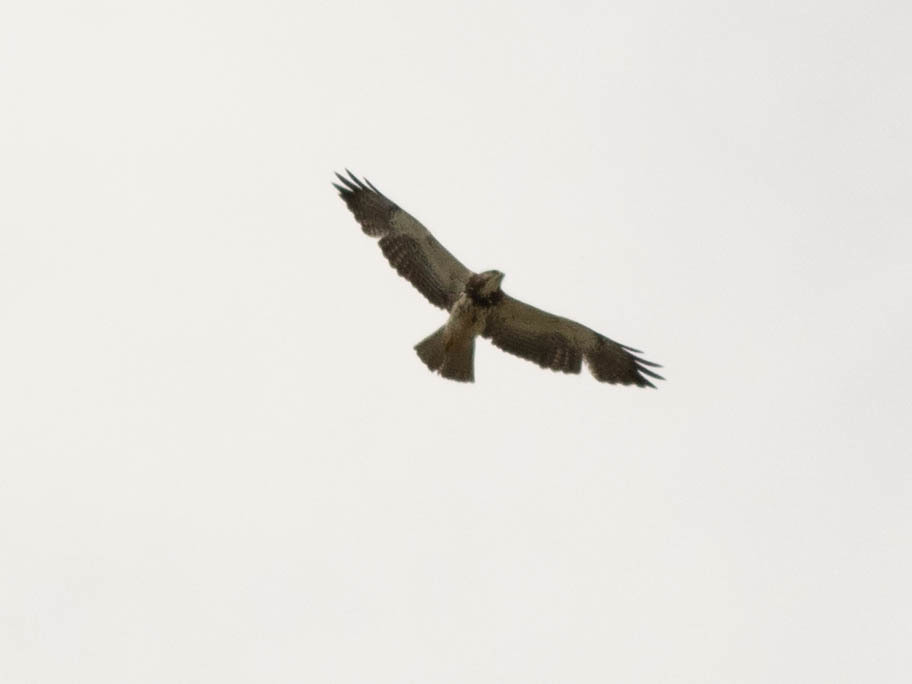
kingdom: Animalia
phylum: Chordata
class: Aves
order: Accipitriformes
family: Accipitridae
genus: Buteo
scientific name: Buteo swainsoni
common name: Swainson's hawk
